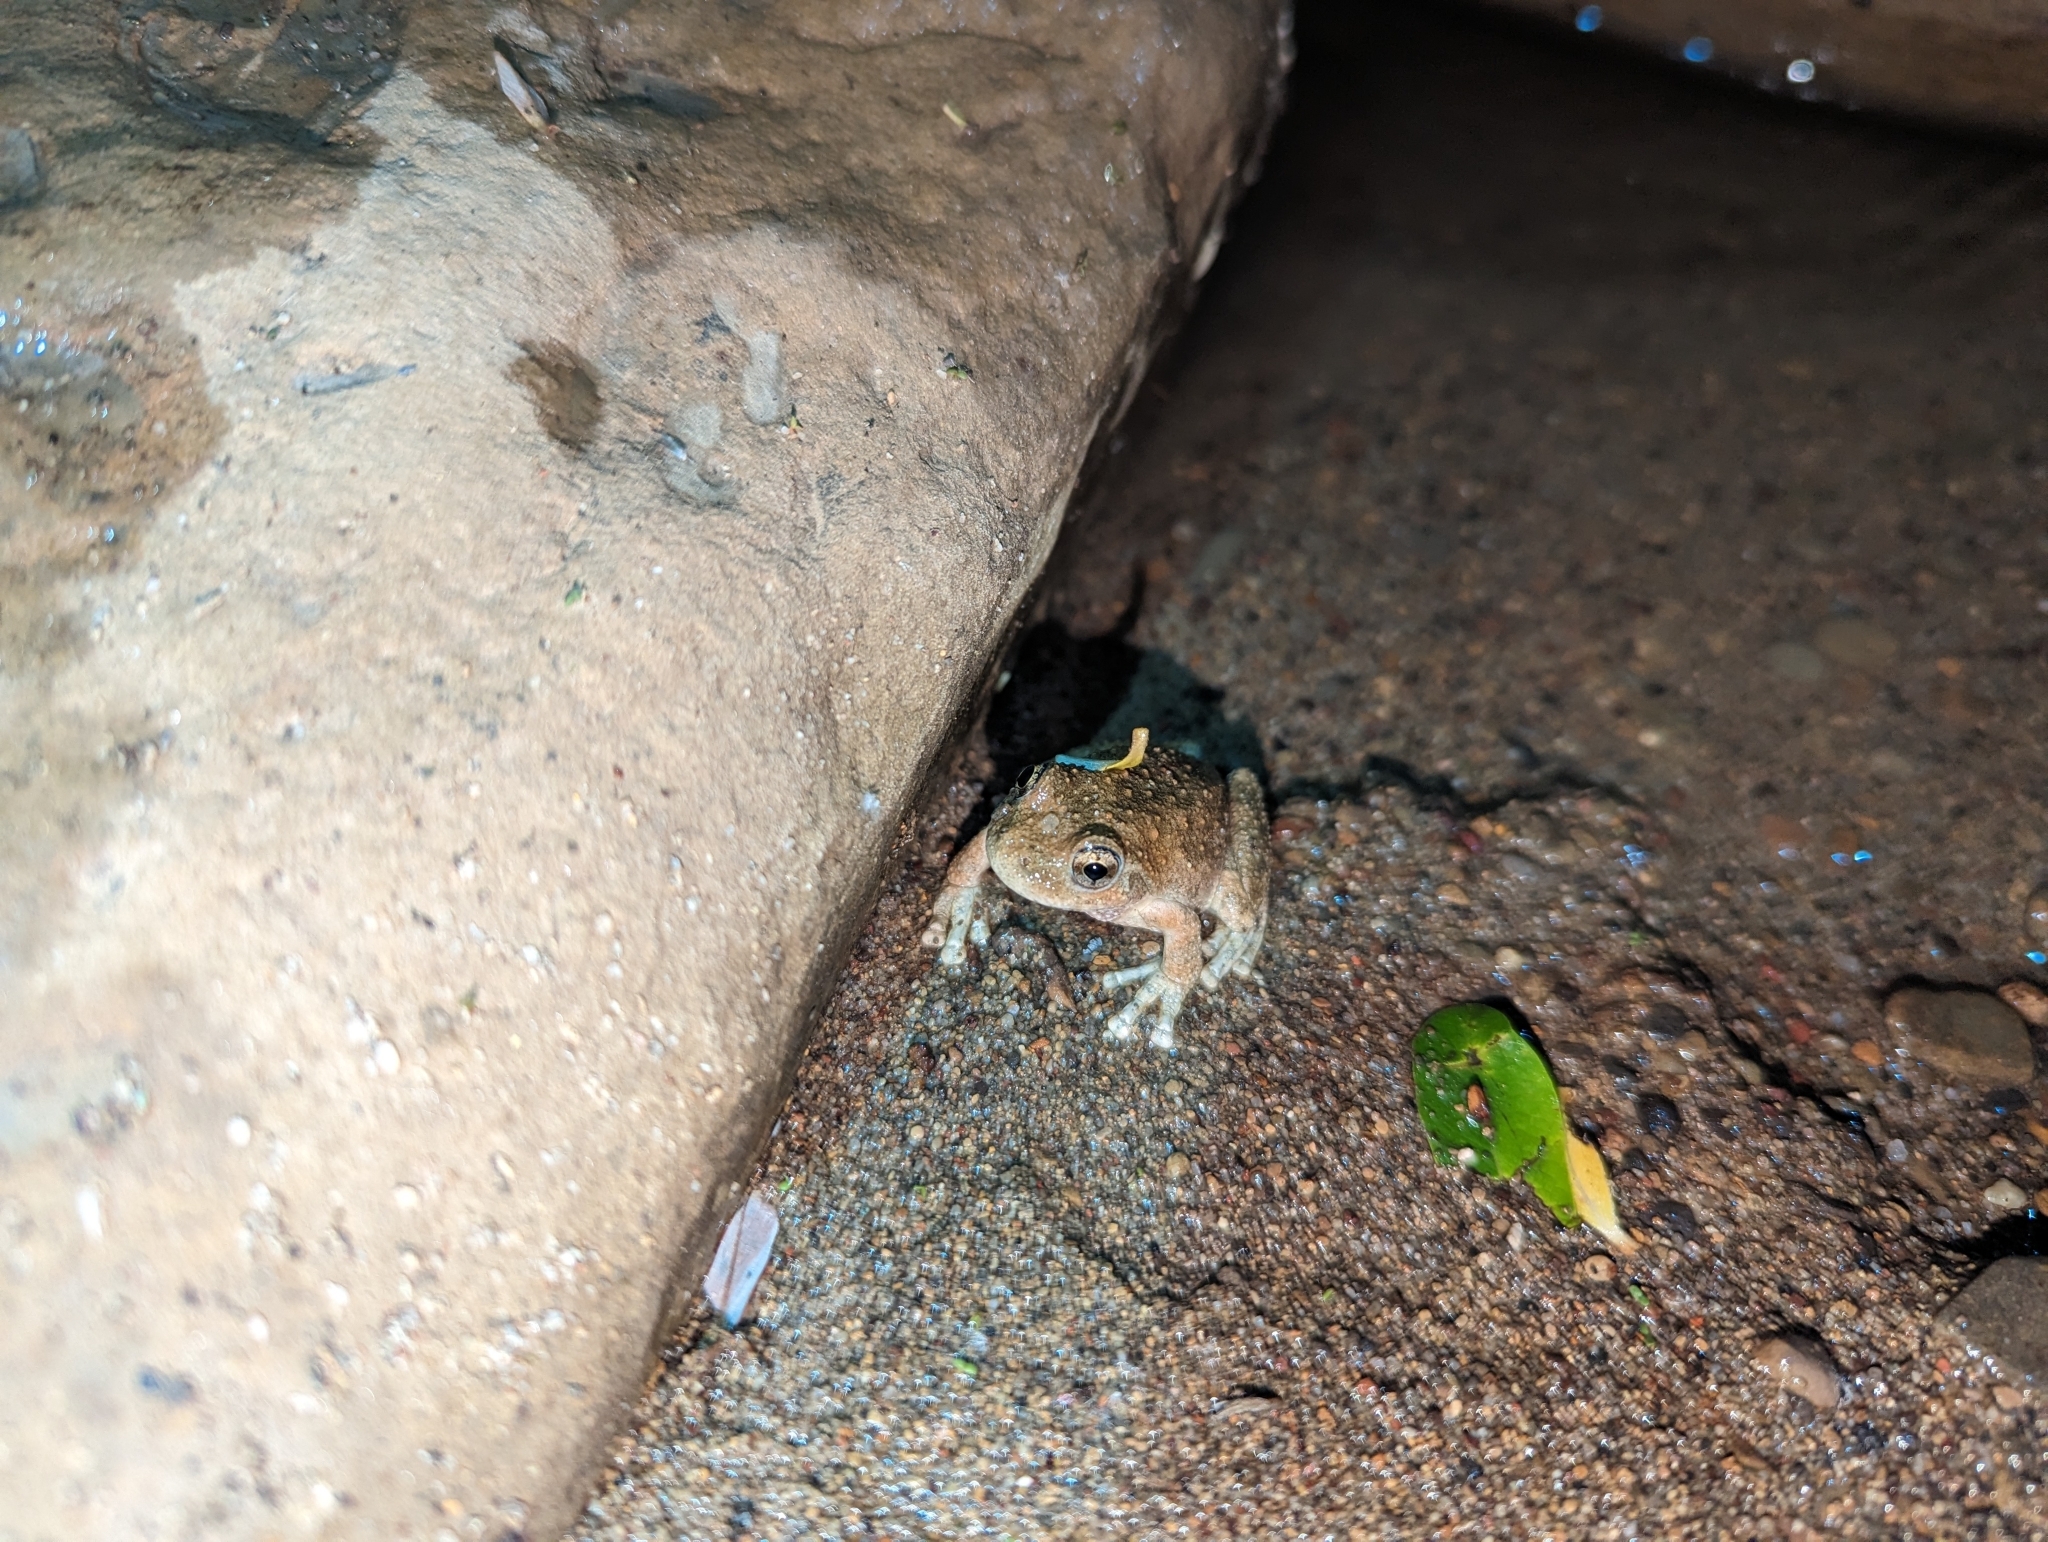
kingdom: Animalia
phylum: Chordata
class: Amphibia
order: Anura
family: Hylidae
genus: Pseudacris
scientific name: Pseudacris cadaverina
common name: California chorus frog
